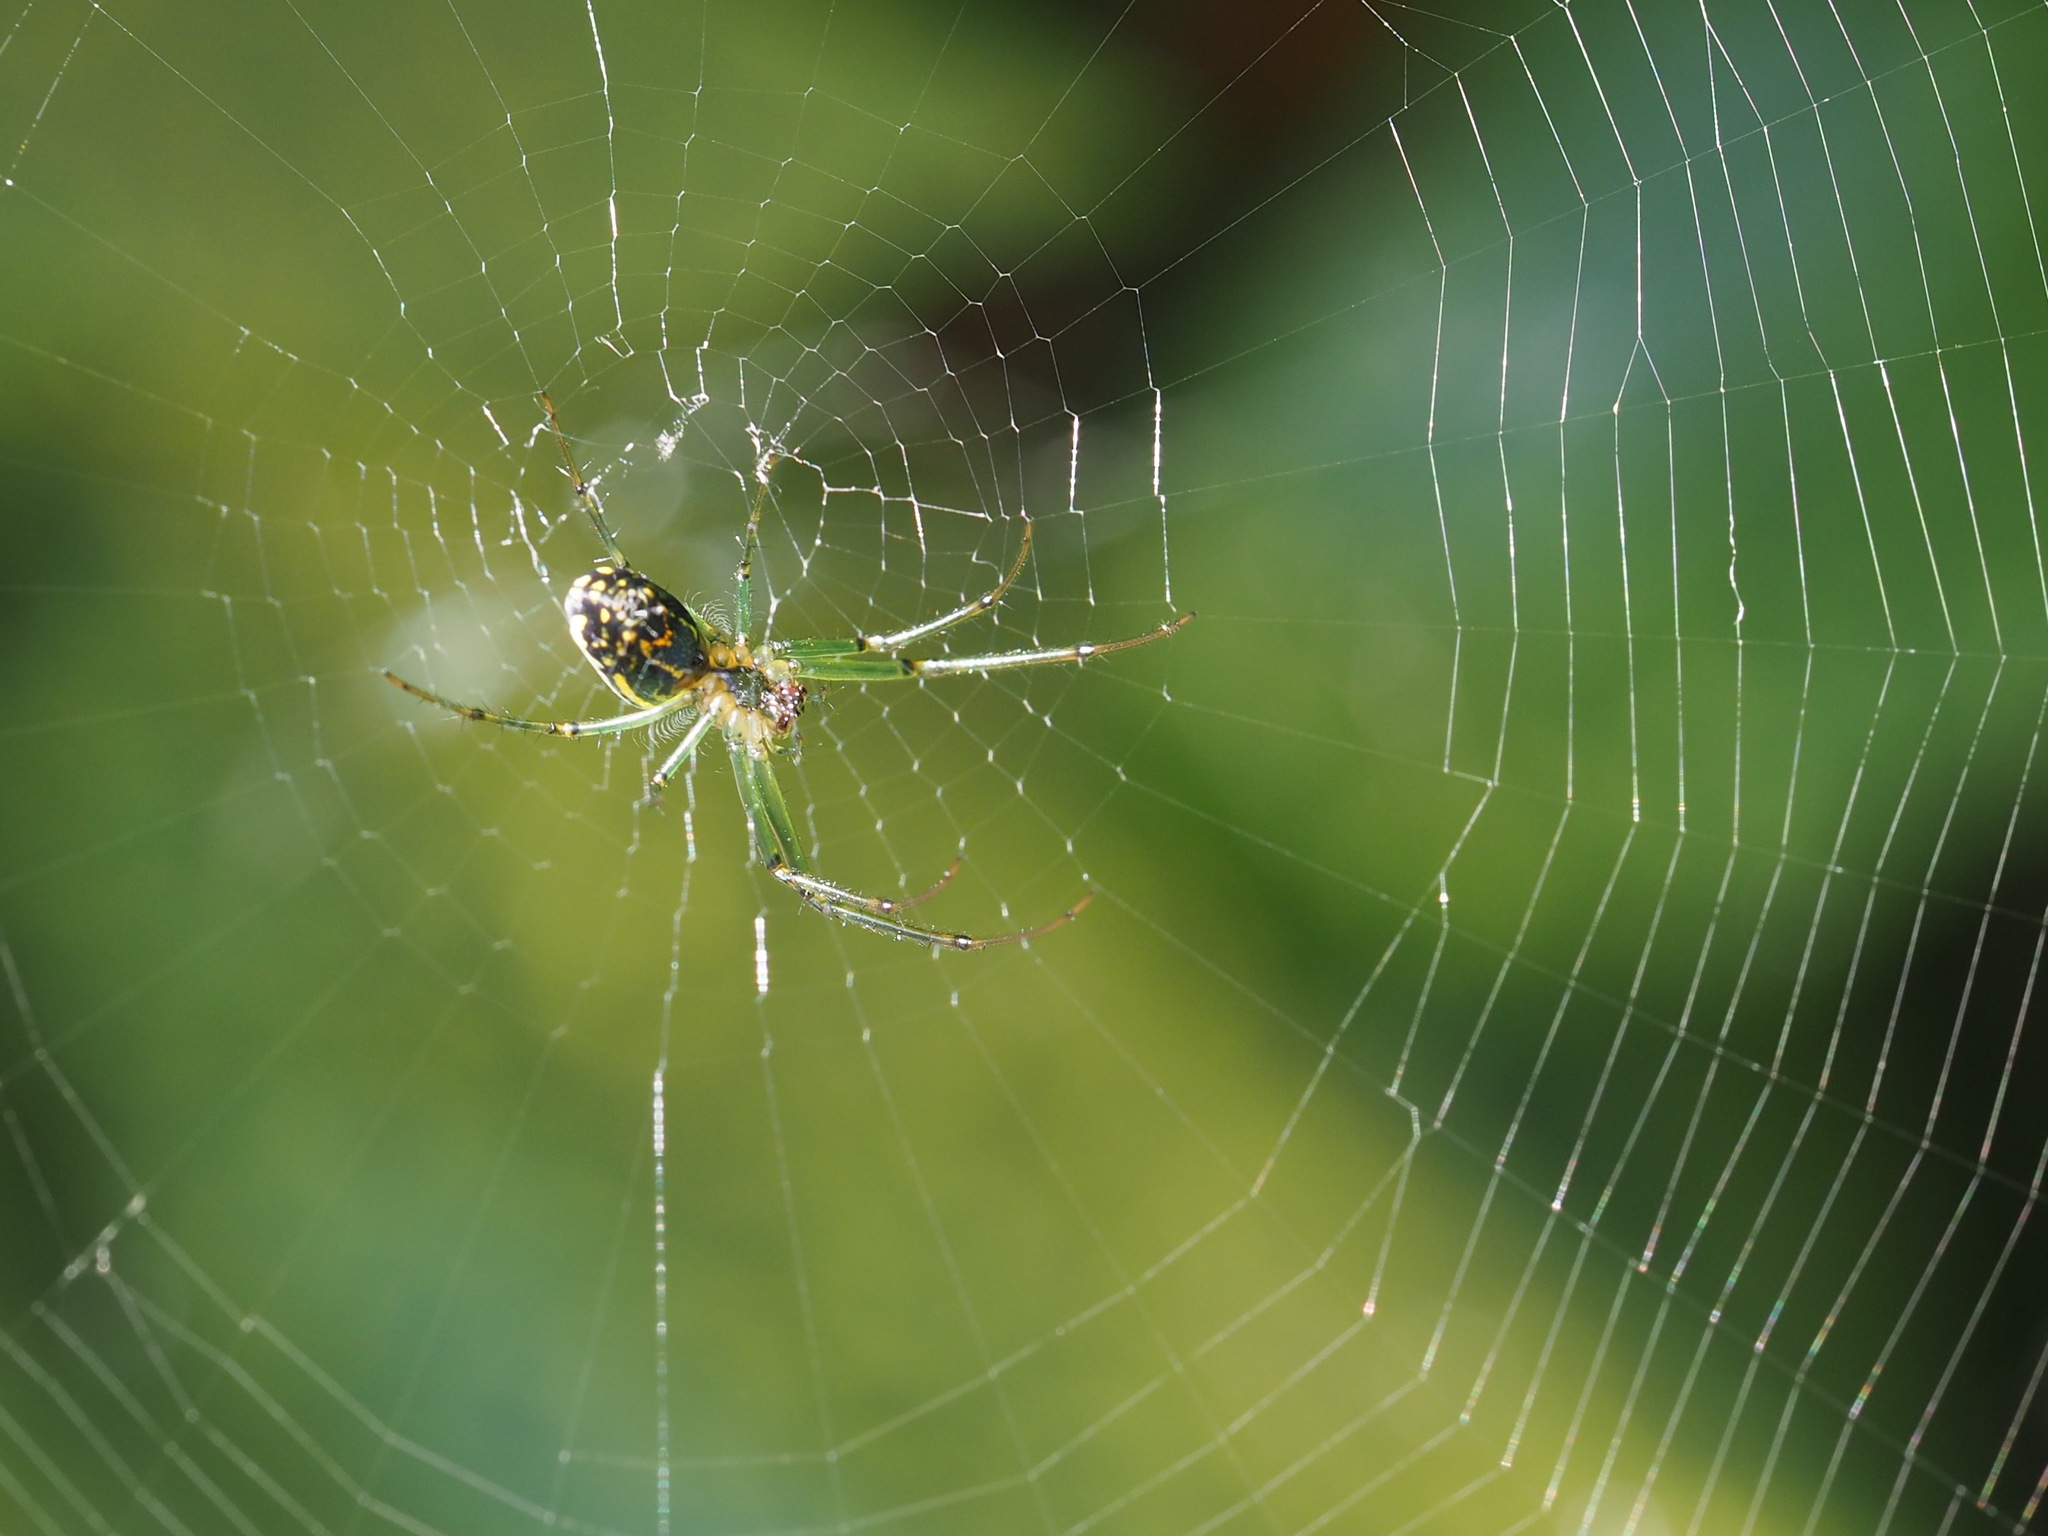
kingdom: Animalia
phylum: Arthropoda
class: Arachnida
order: Araneae
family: Tetragnathidae
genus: Leucauge
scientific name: Leucauge venusta
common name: Longjawed orb weavers
